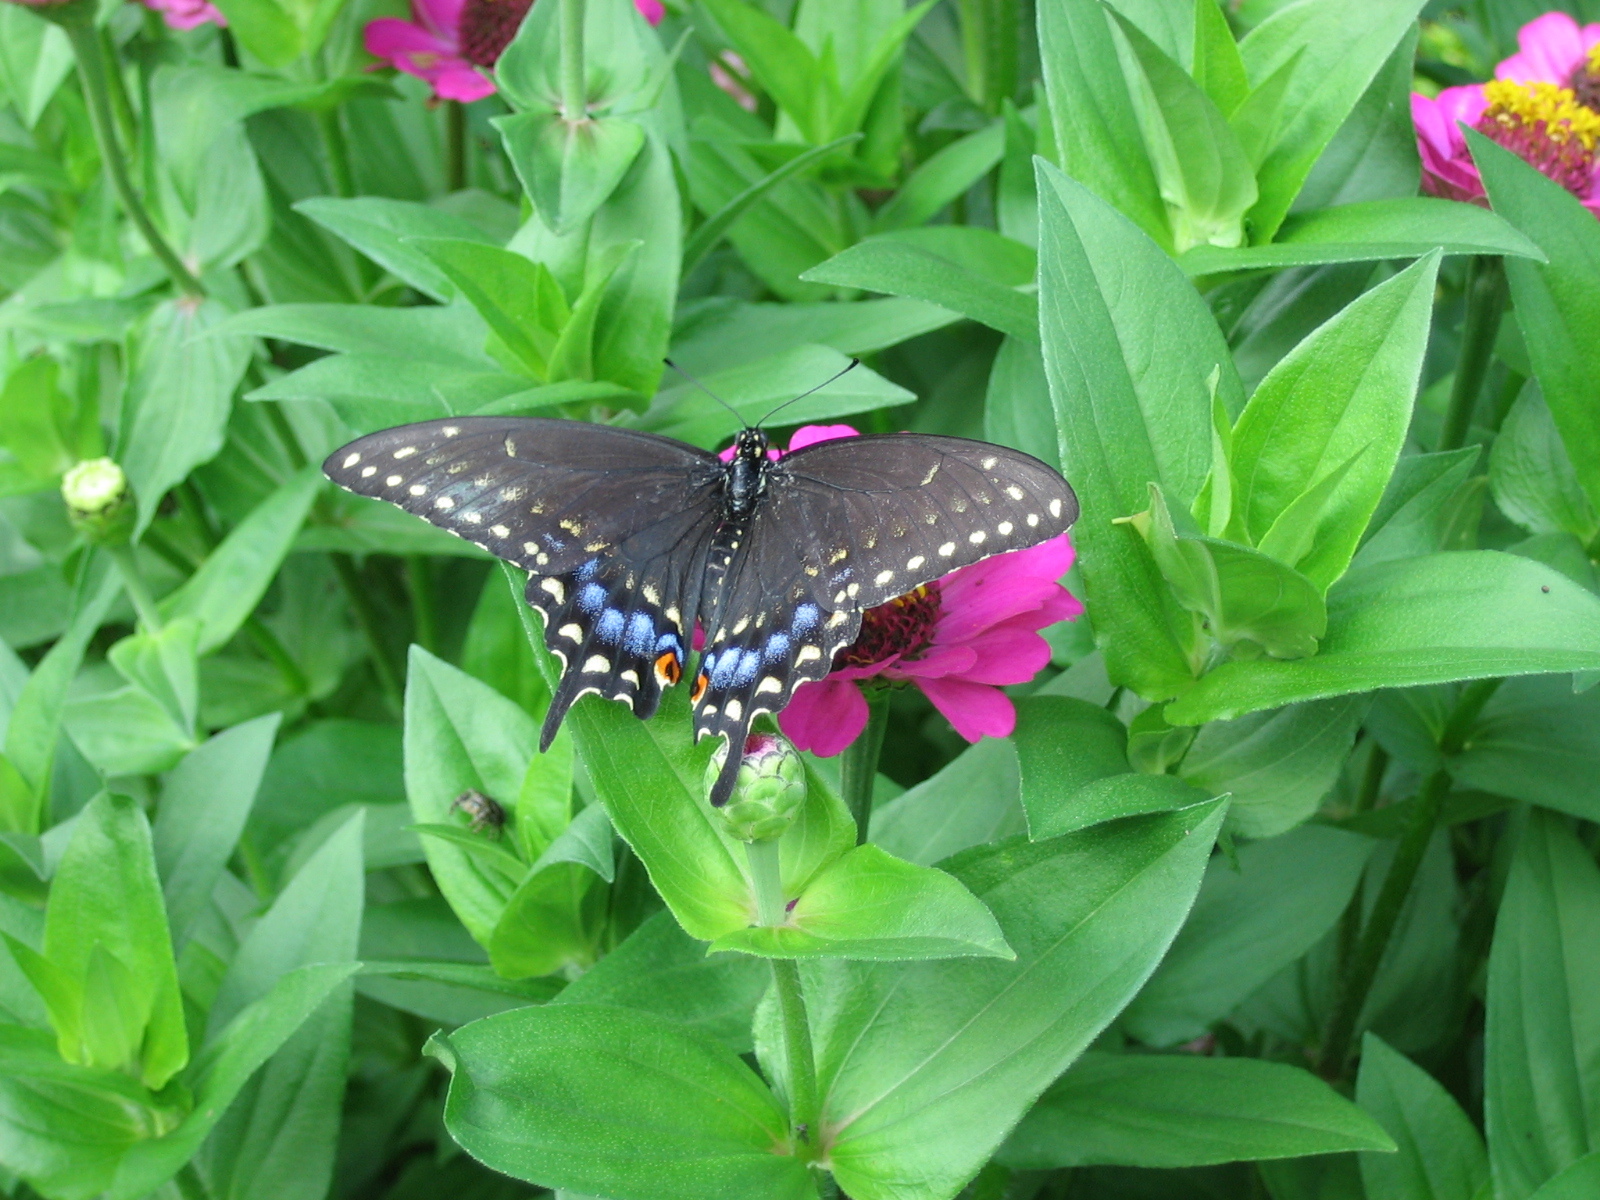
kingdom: Animalia
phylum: Arthropoda
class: Insecta
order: Lepidoptera
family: Papilionidae
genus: Papilio
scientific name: Papilio polyxenes
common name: Black swallowtail
